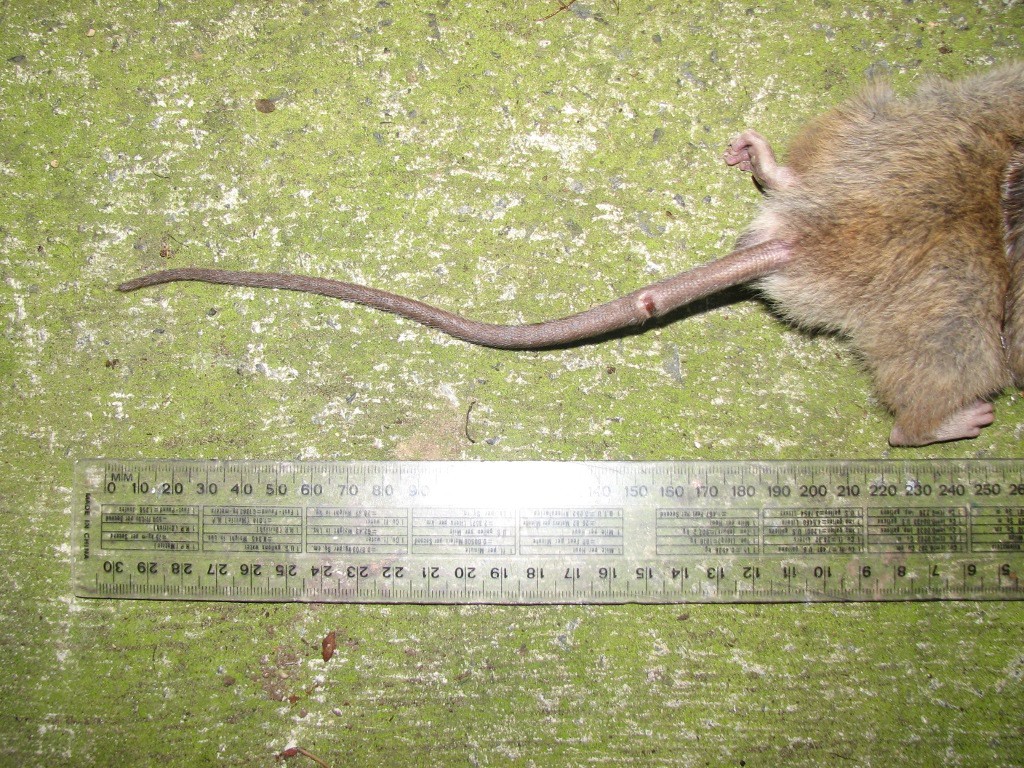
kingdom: Animalia
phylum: Chordata
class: Mammalia
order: Rodentia
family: Muridae
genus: Rattus
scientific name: Rattus rattus
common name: Black rat
